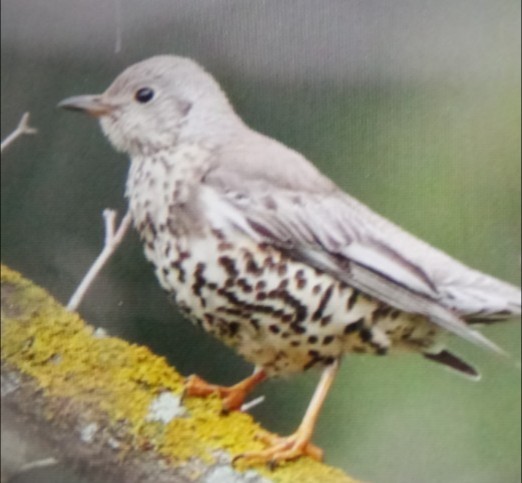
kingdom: Animalia
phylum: Chordata
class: Aves
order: Passeriformes
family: Turdidae
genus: Turdus
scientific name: Turdus viscivorus
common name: Mistle thrush
